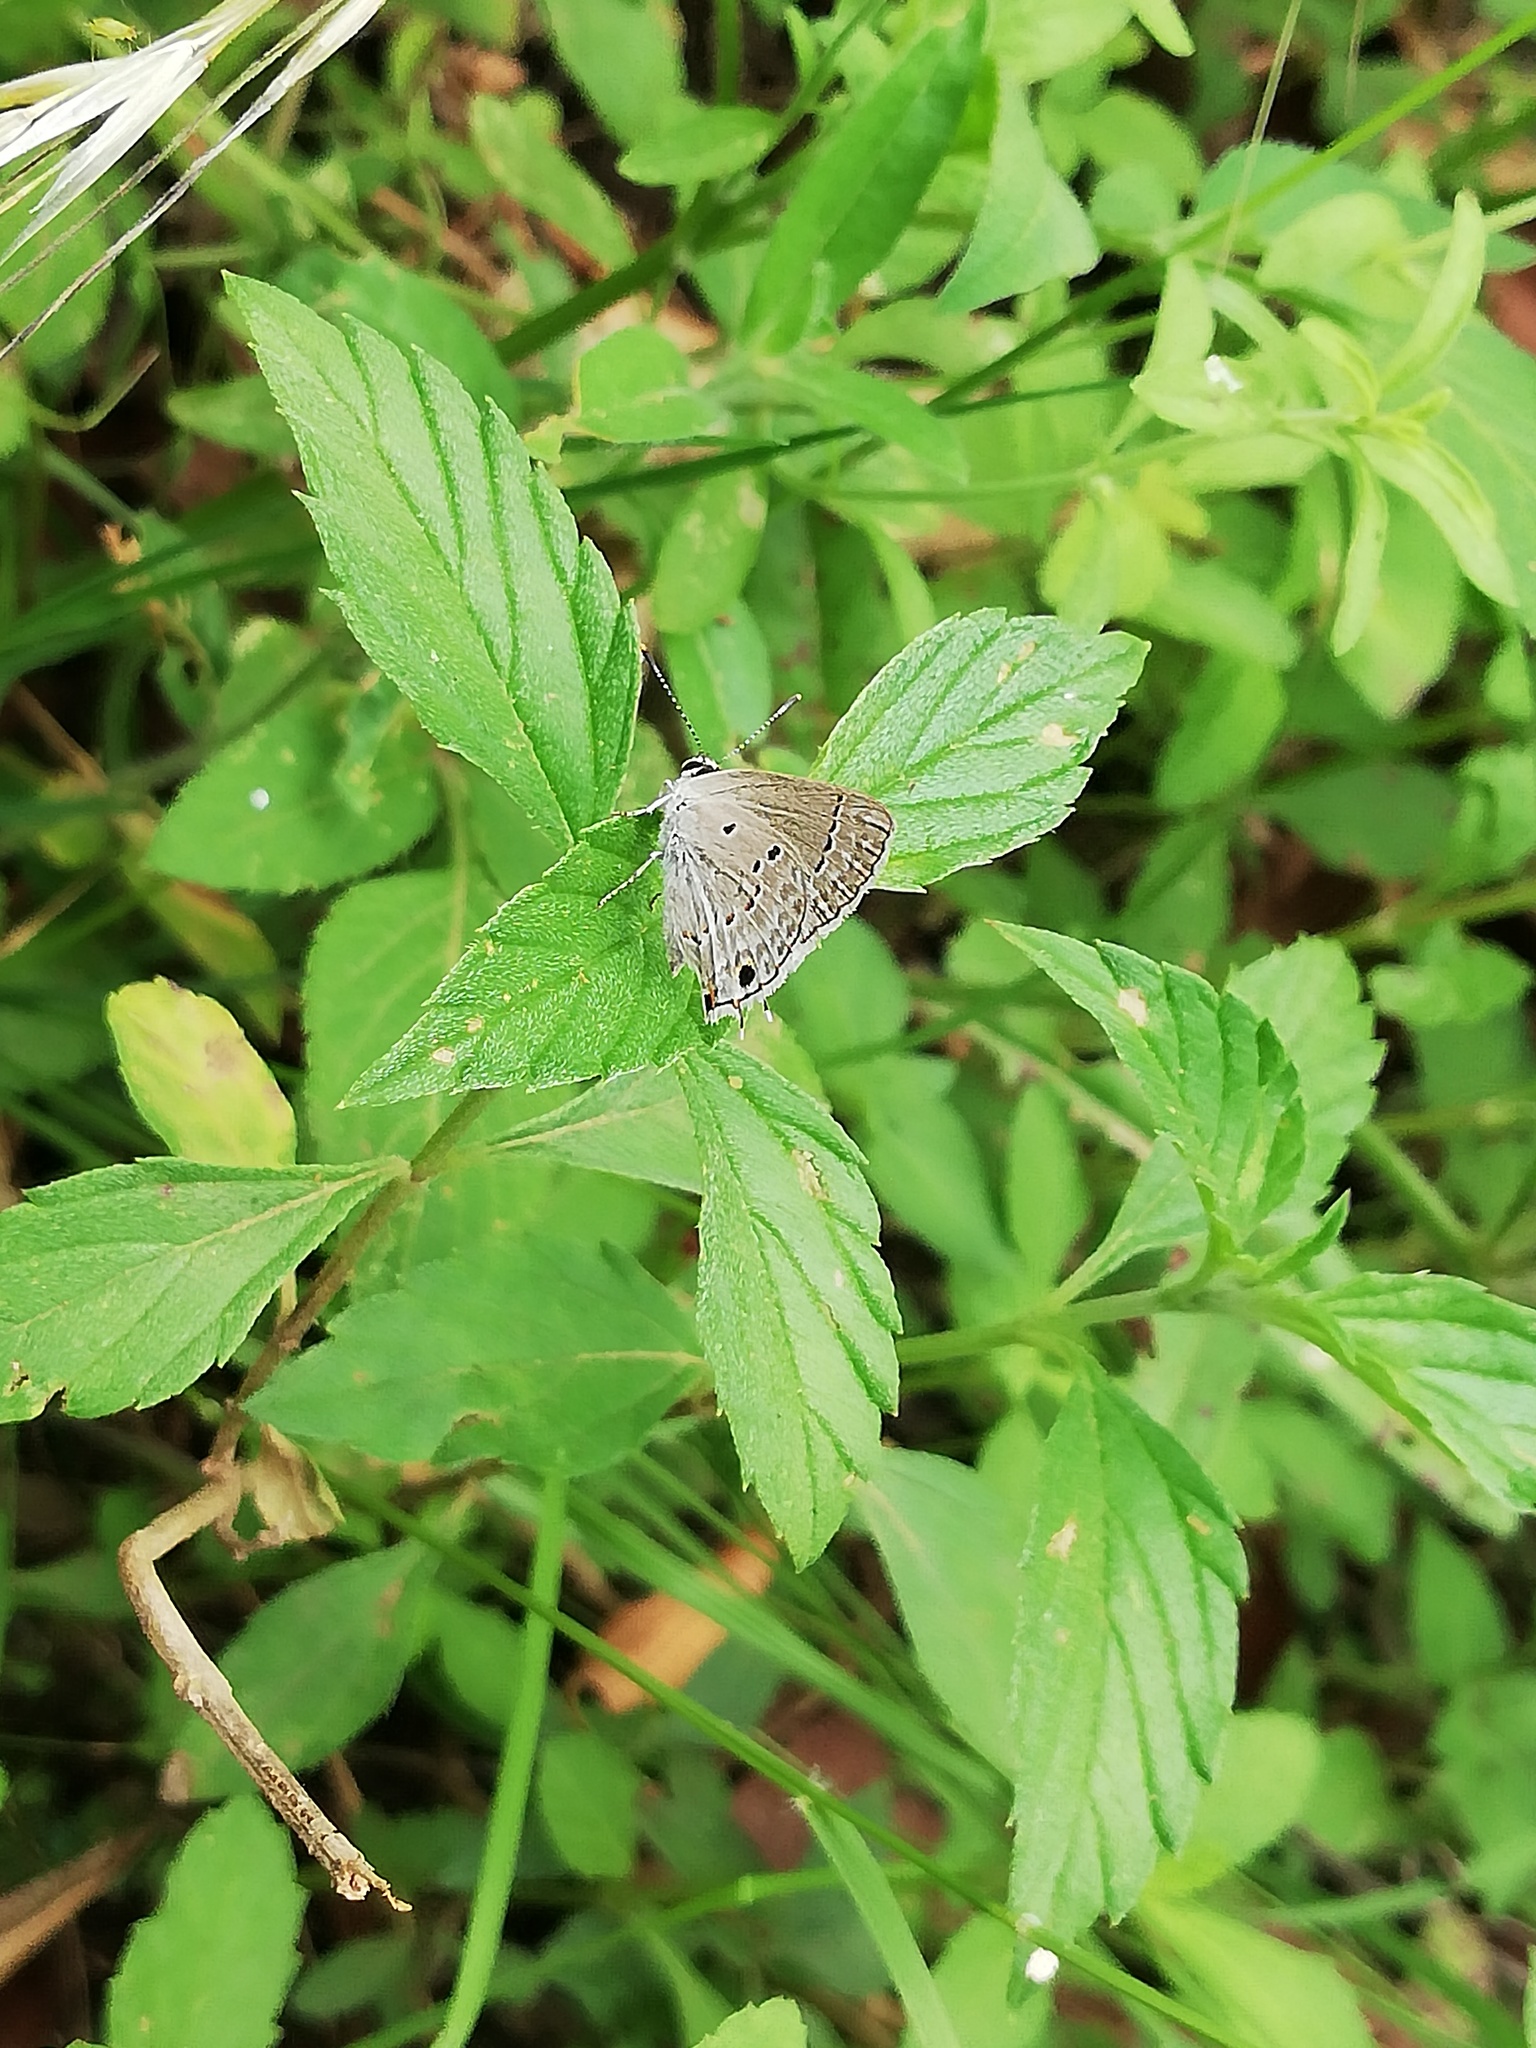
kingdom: Animalia
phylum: Arthropoda
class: Insecta
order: Lepidoptera
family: Lycaenidae
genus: Callicista
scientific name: Callicista columella
